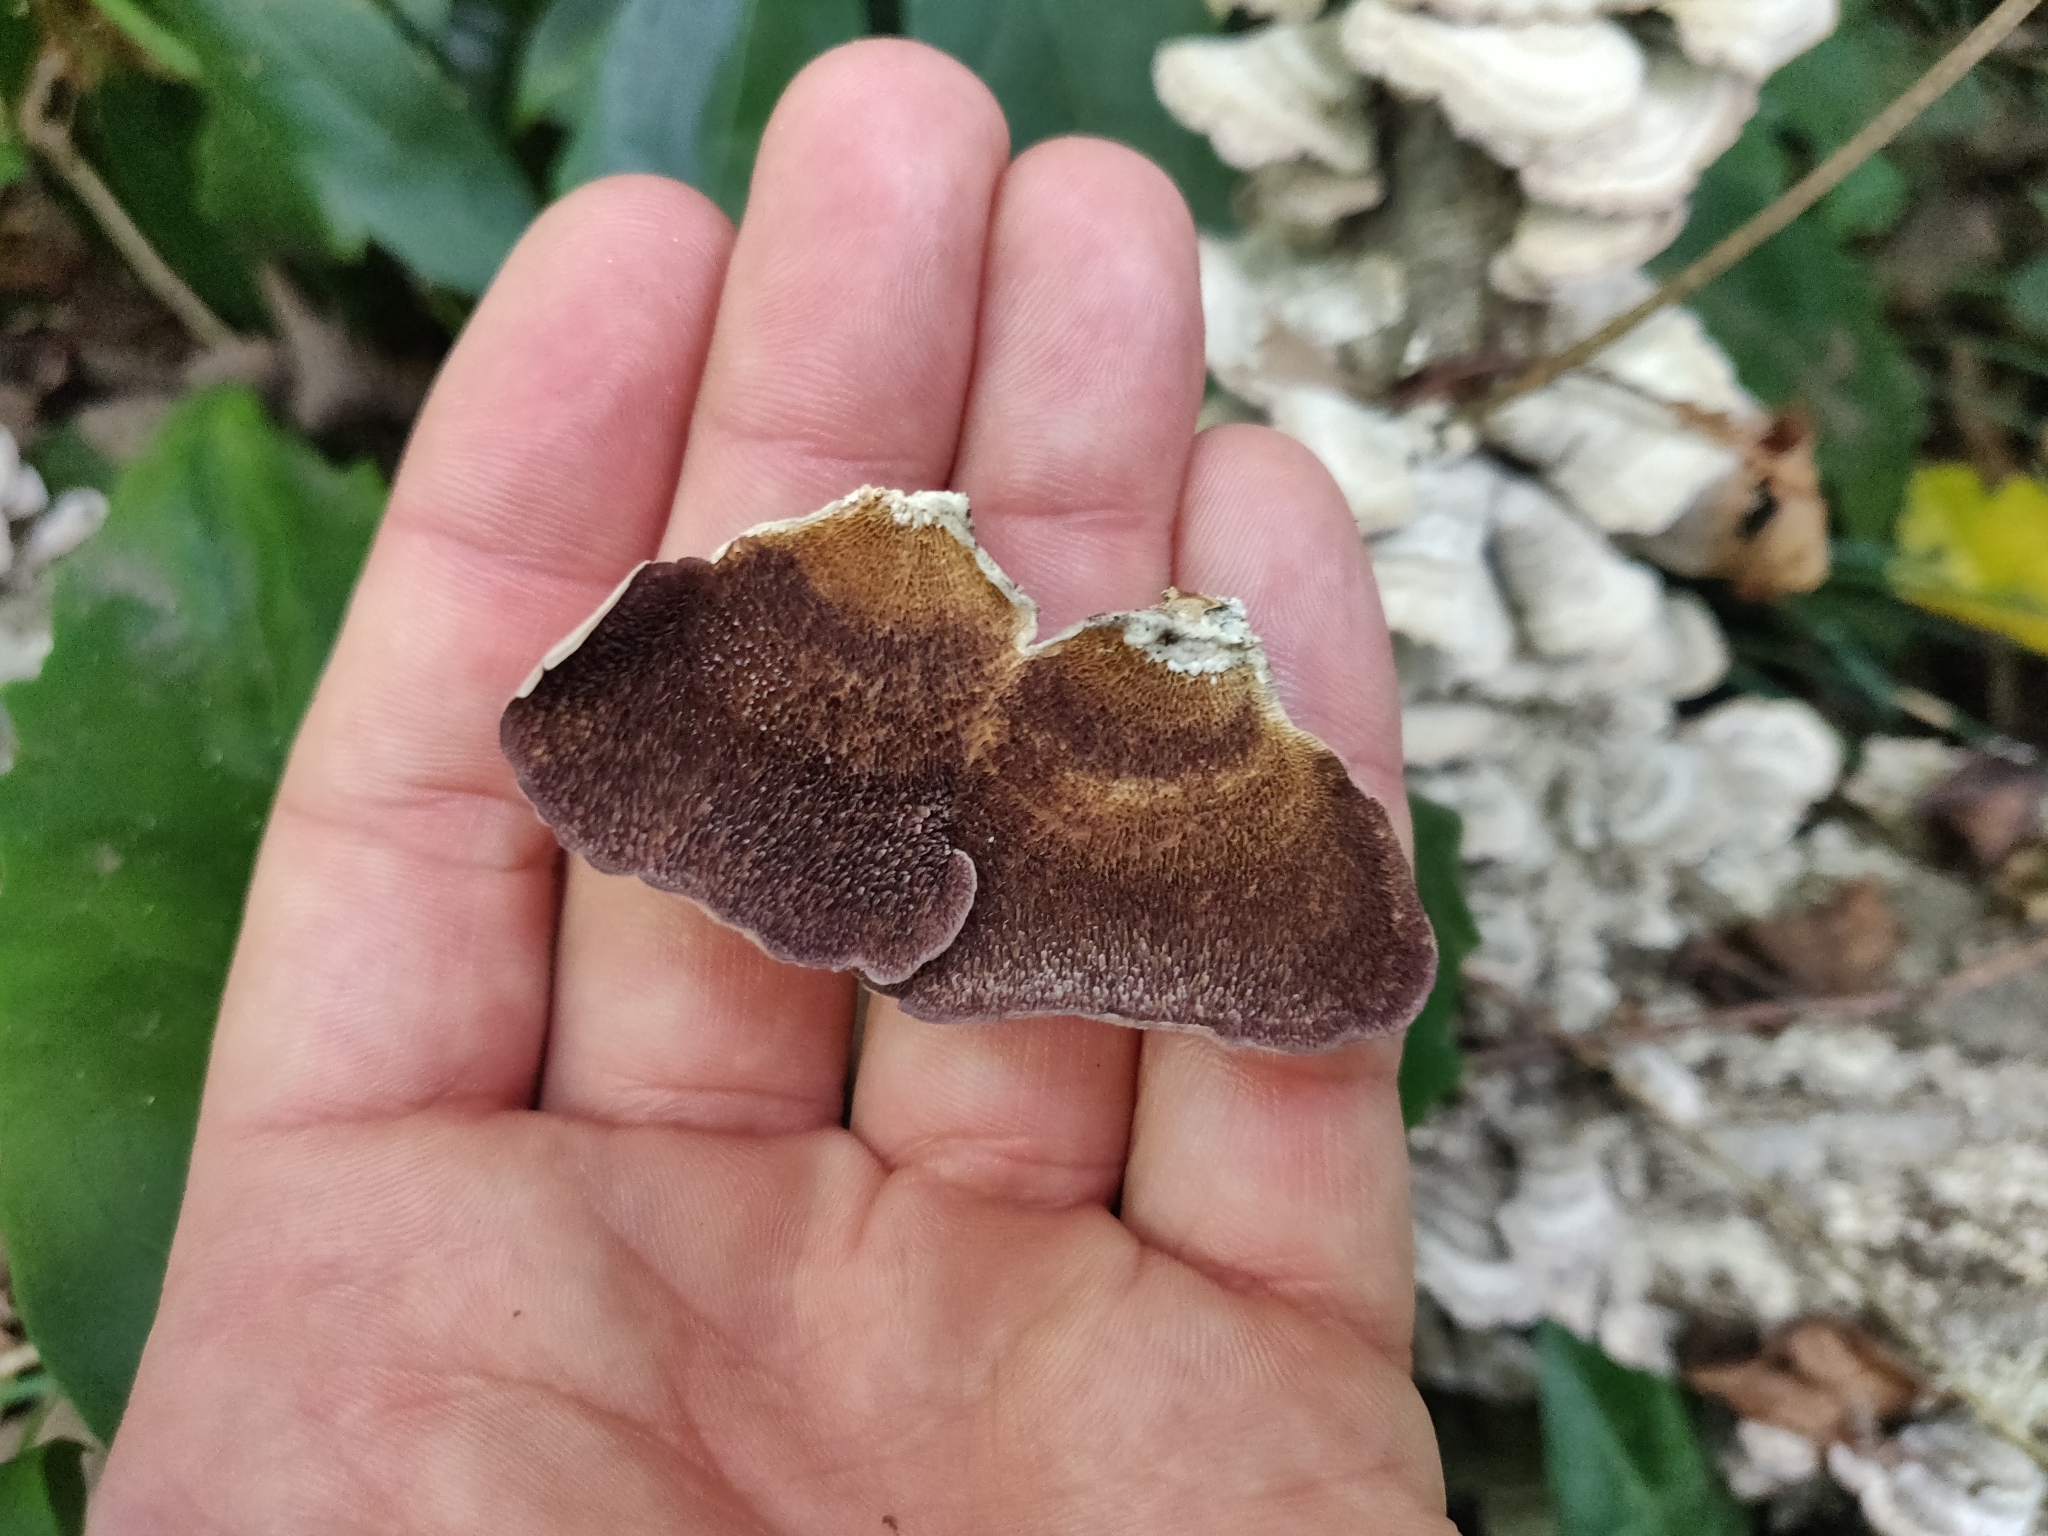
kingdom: Fungi
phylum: Basidiomycota
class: Agaricomycetes
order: Hymenochaetales
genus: Trichaptum
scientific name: Trichaptum biforme
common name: Violet-toothed polypore
